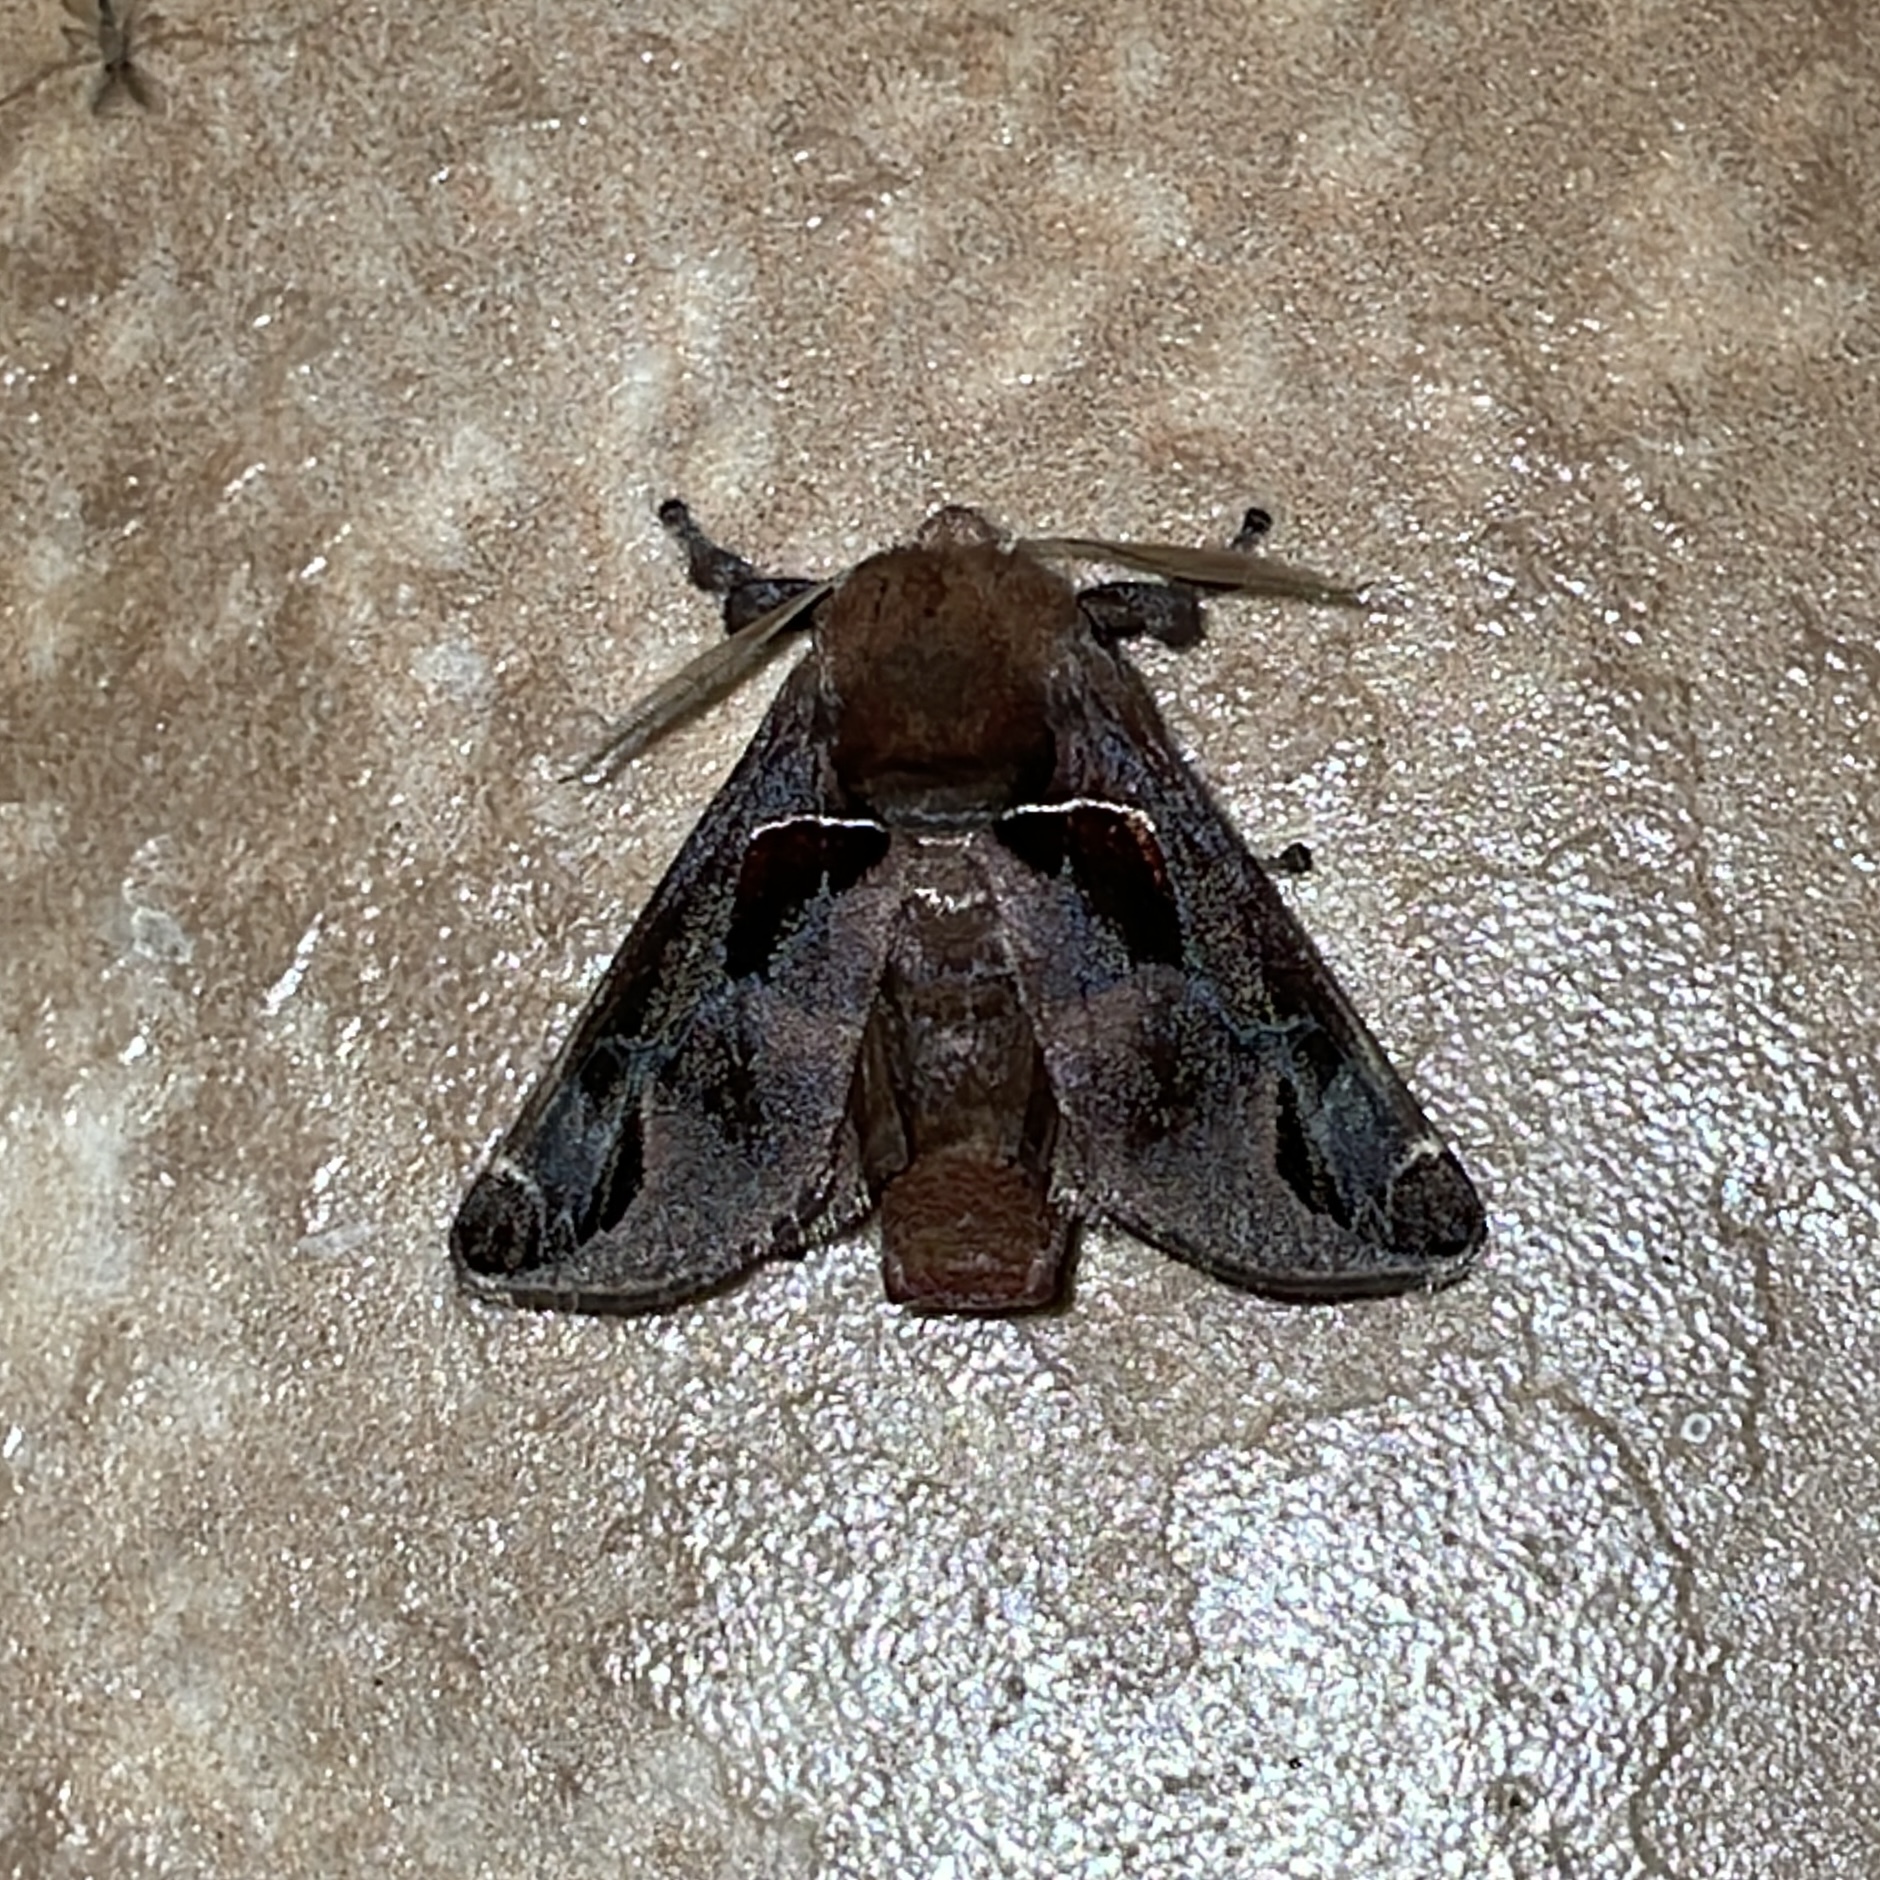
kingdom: Animalia
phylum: Arthropoda
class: Insecta
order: Lepidoptera
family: Limacodidae
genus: Semyra
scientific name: Semyra distincta
